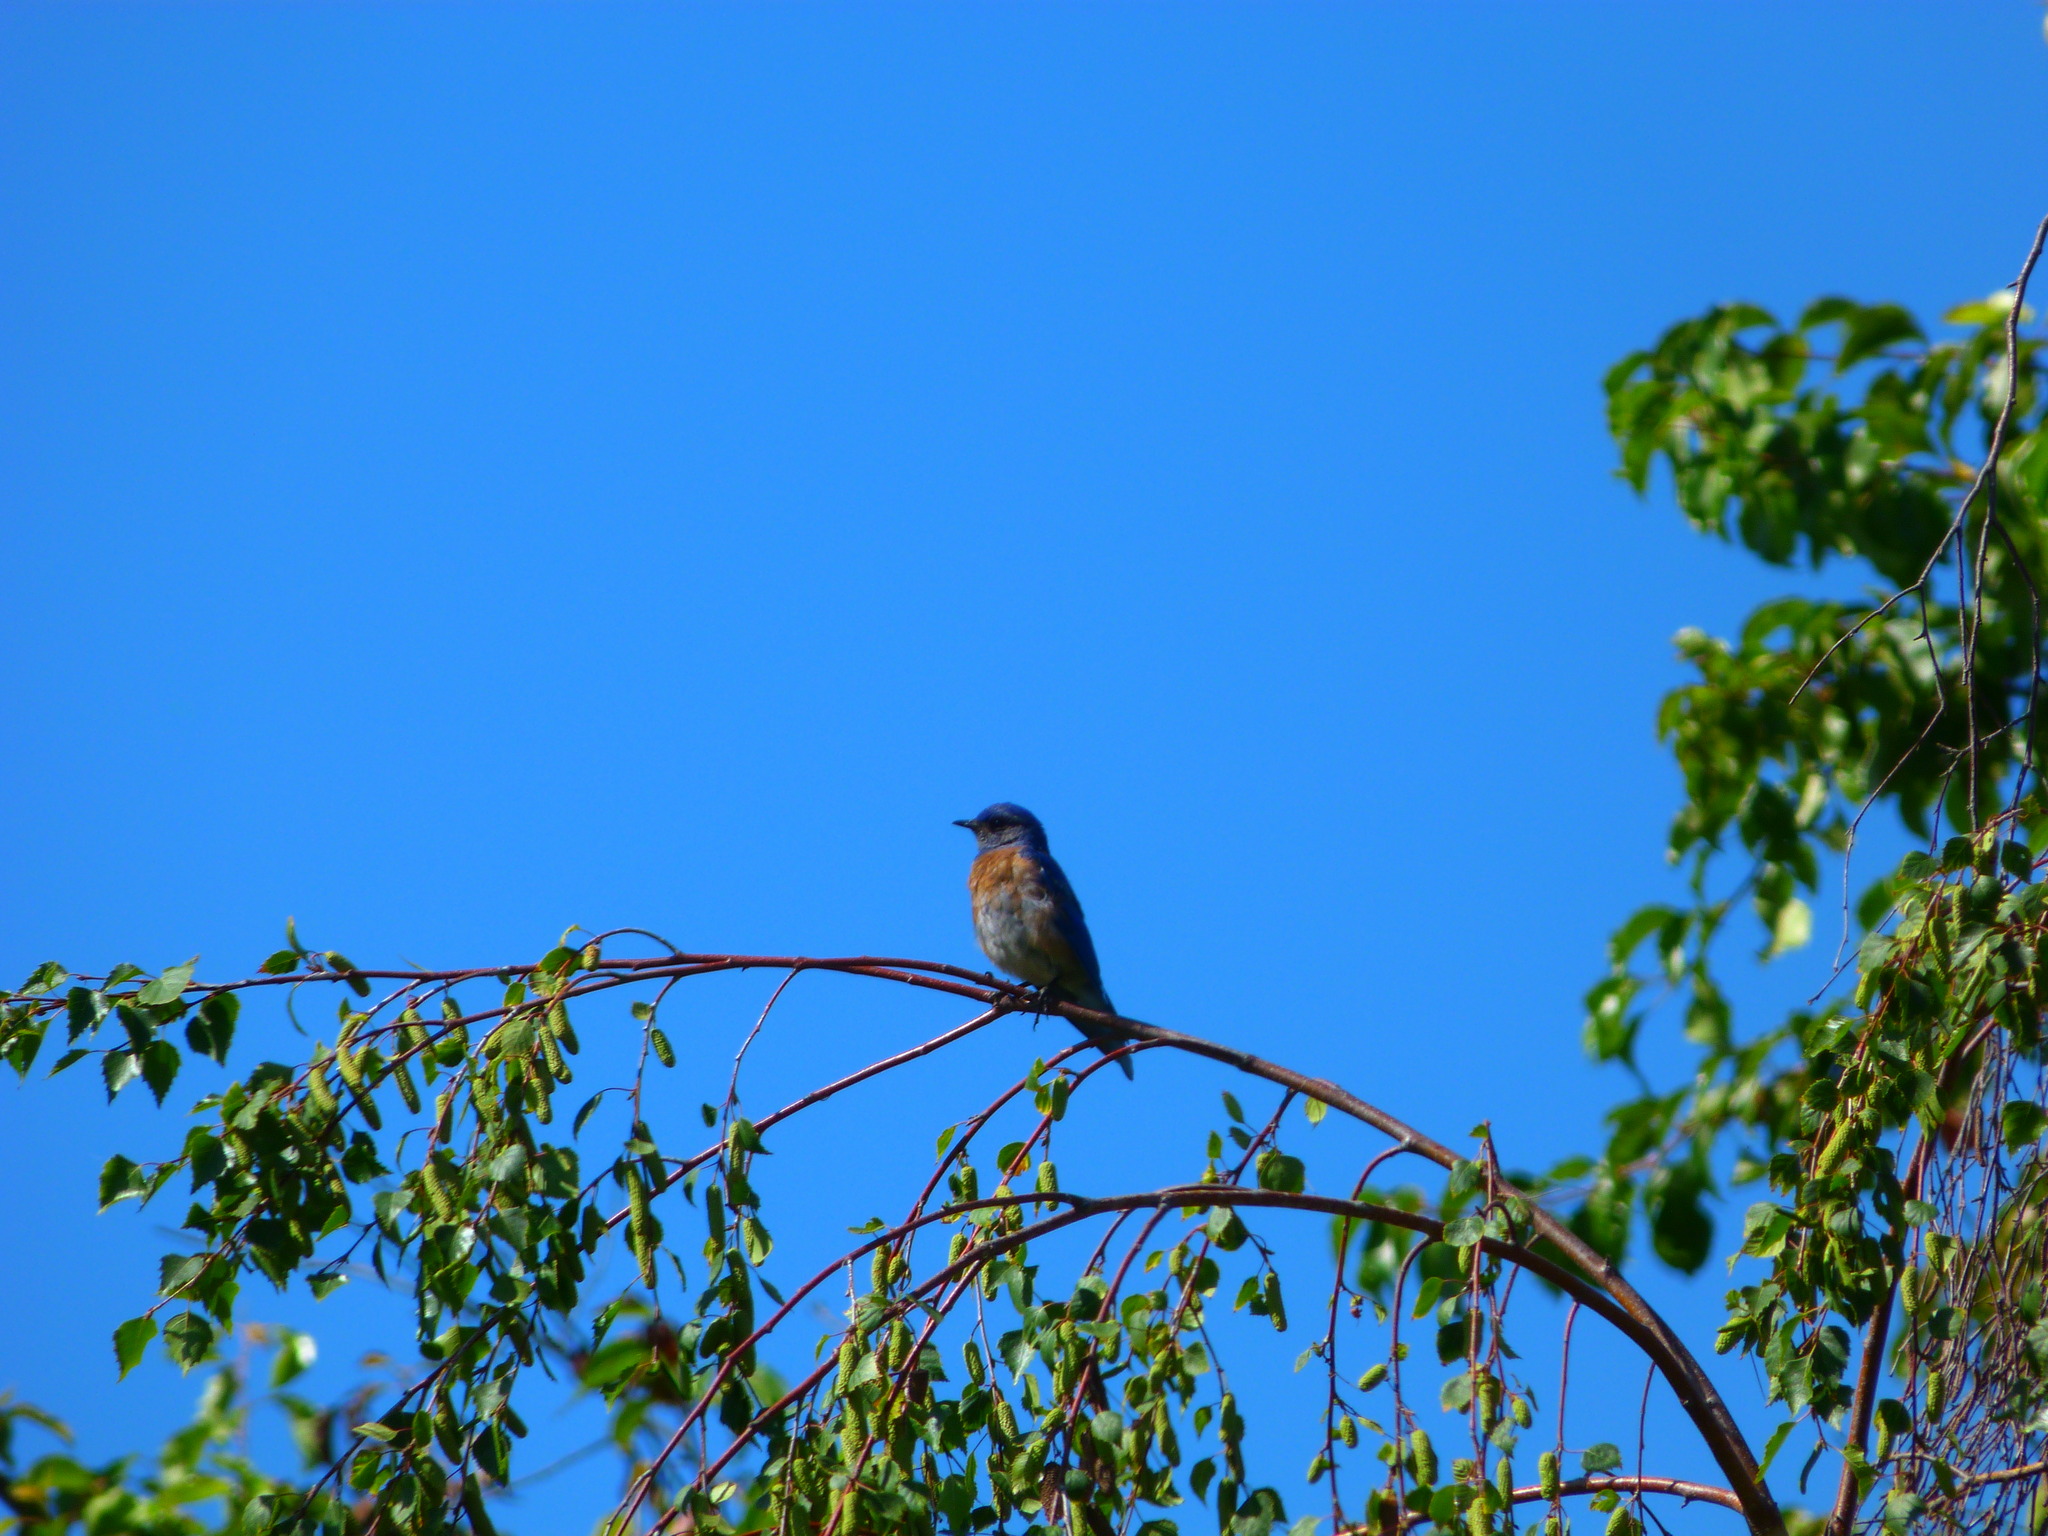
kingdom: Animalia
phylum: Chordata
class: Aves
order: Passeriformes
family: Turdidae
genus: Sialia
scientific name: Sialia mexicana
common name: Western bluebird
